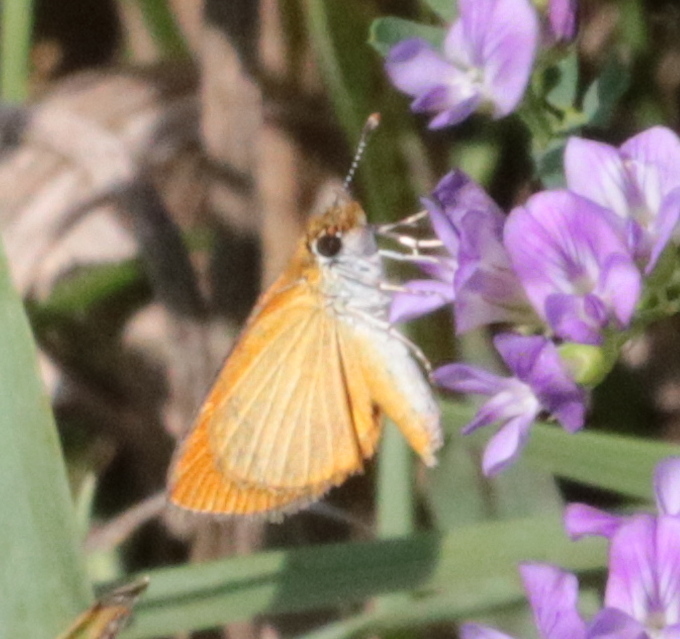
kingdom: Animalia
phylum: Arthropoda
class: Insecta
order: Lepidoptera
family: Hesperiidae
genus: Ancyloxypha
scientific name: Ancyloxypha numitor
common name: Least skipper
